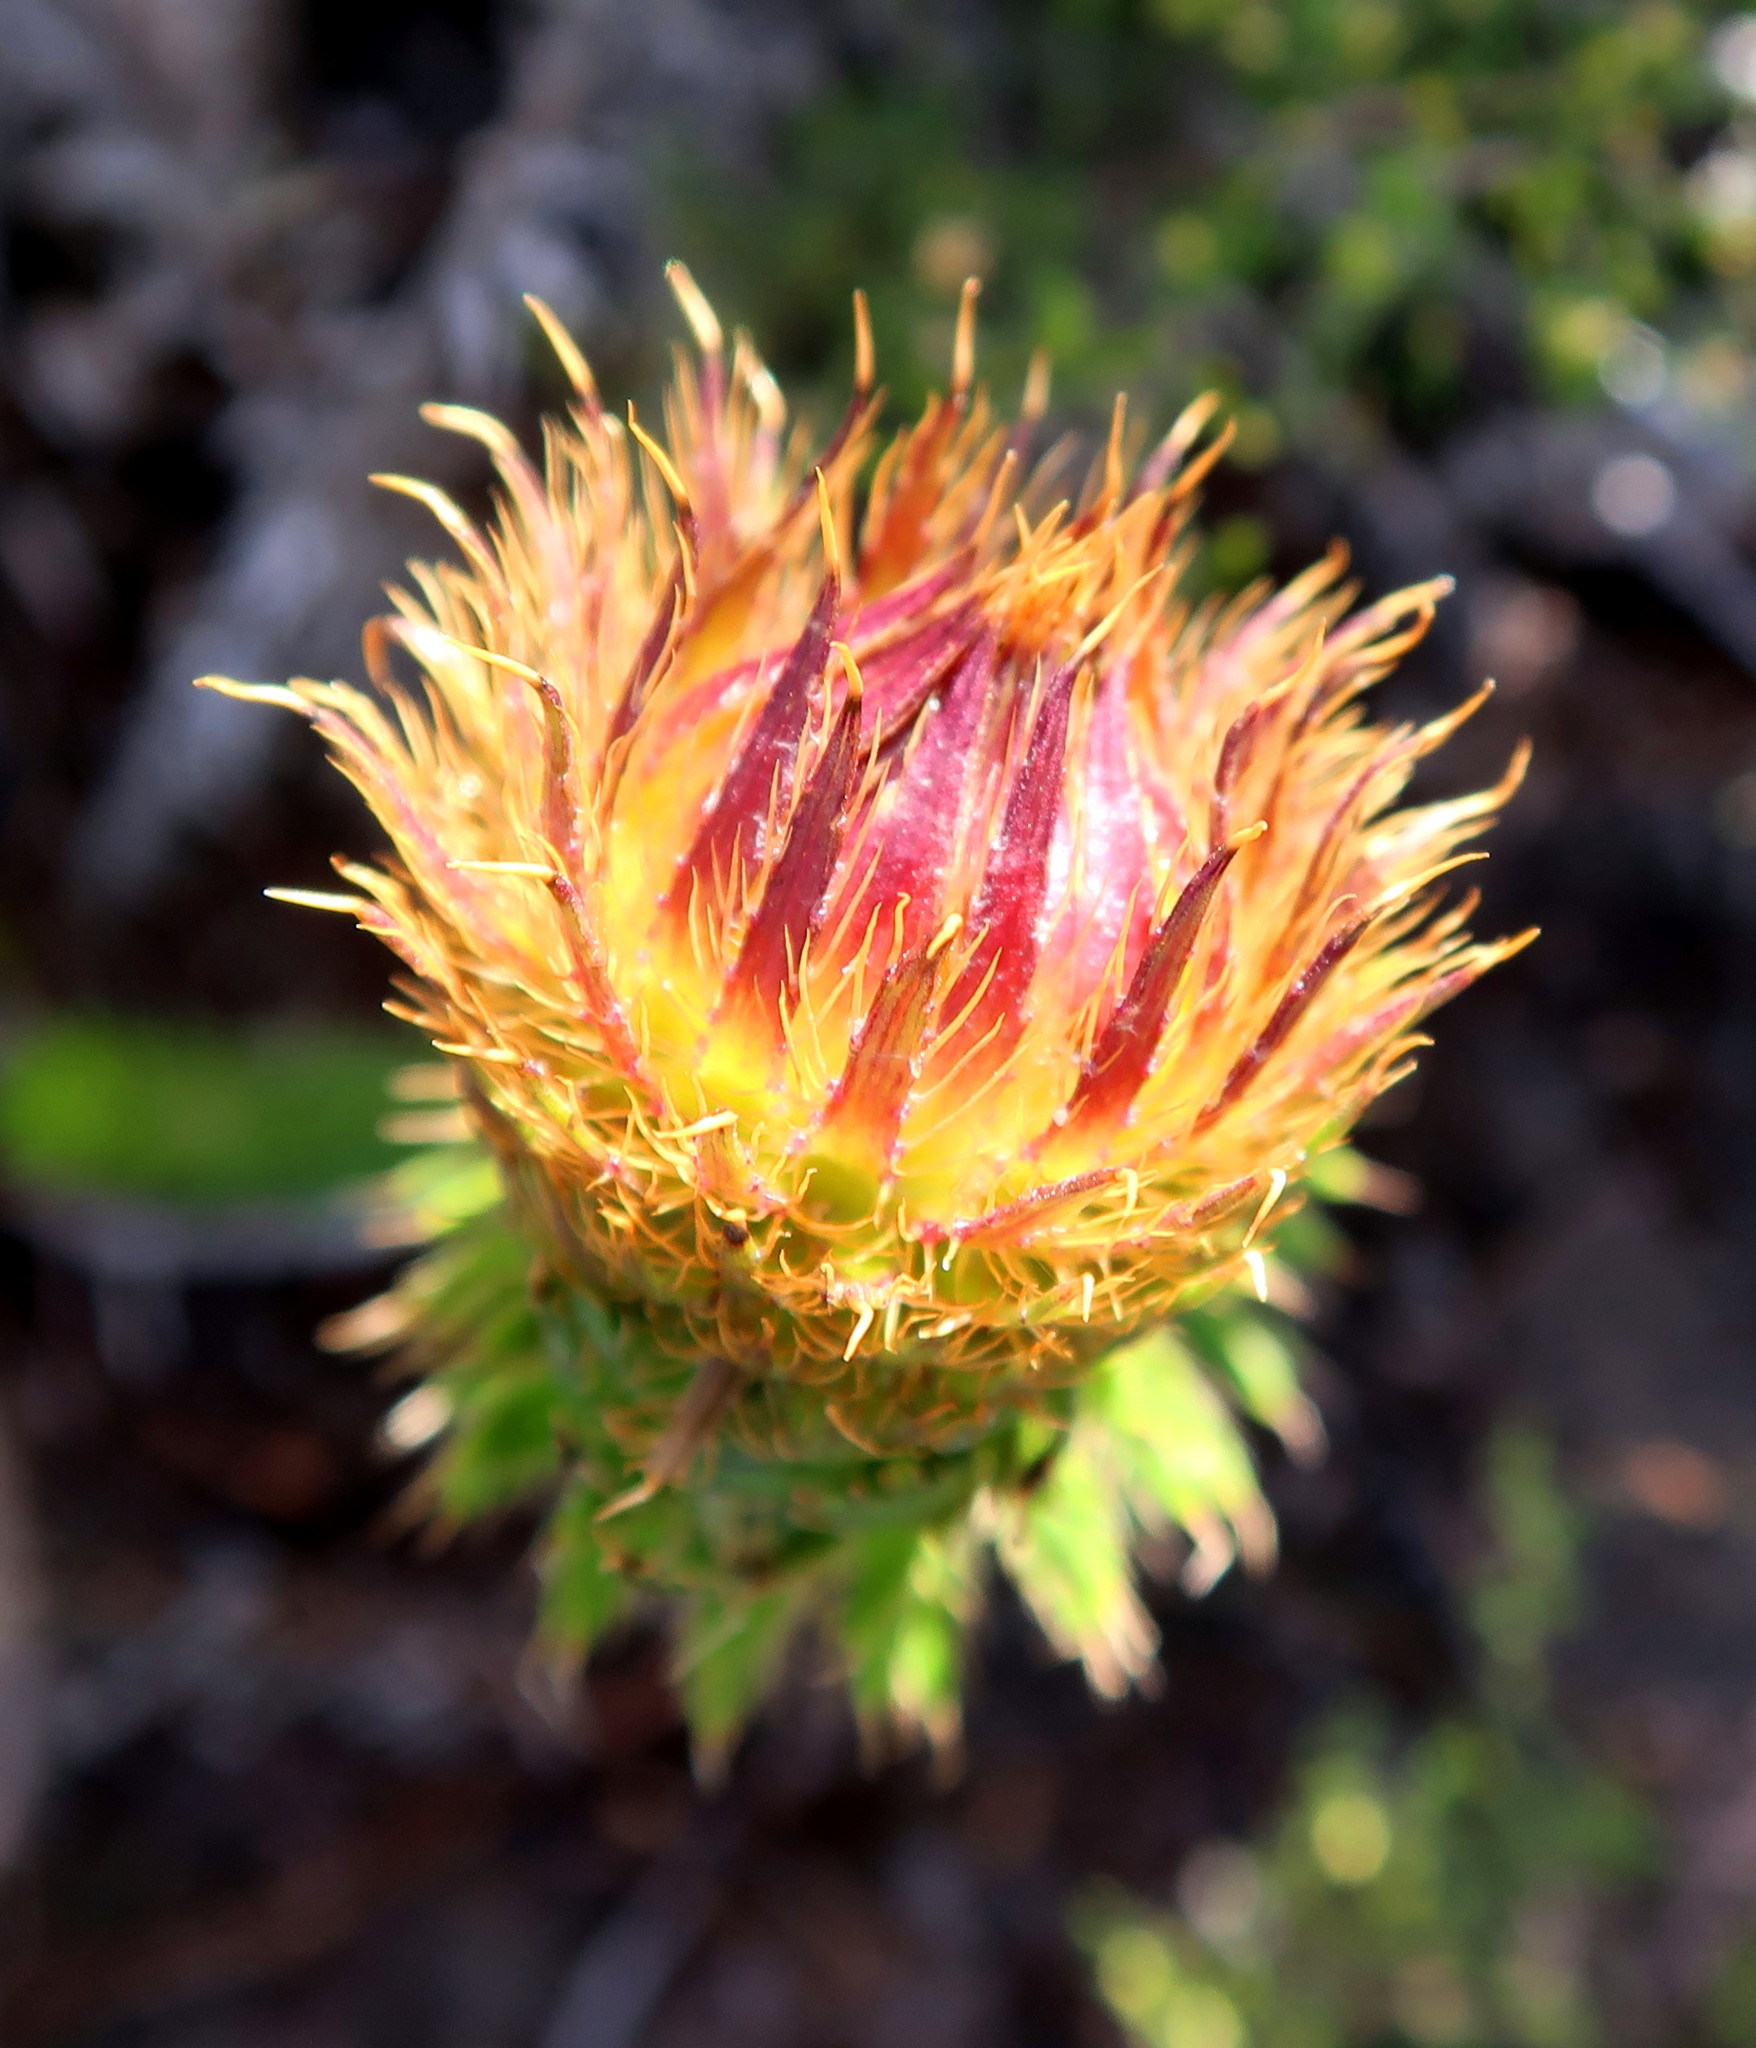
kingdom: Plantae
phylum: Tracheophyta
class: Magnoliopsida
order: Asterales
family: Asteraceae
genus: Oedera
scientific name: Oedera imbricata
